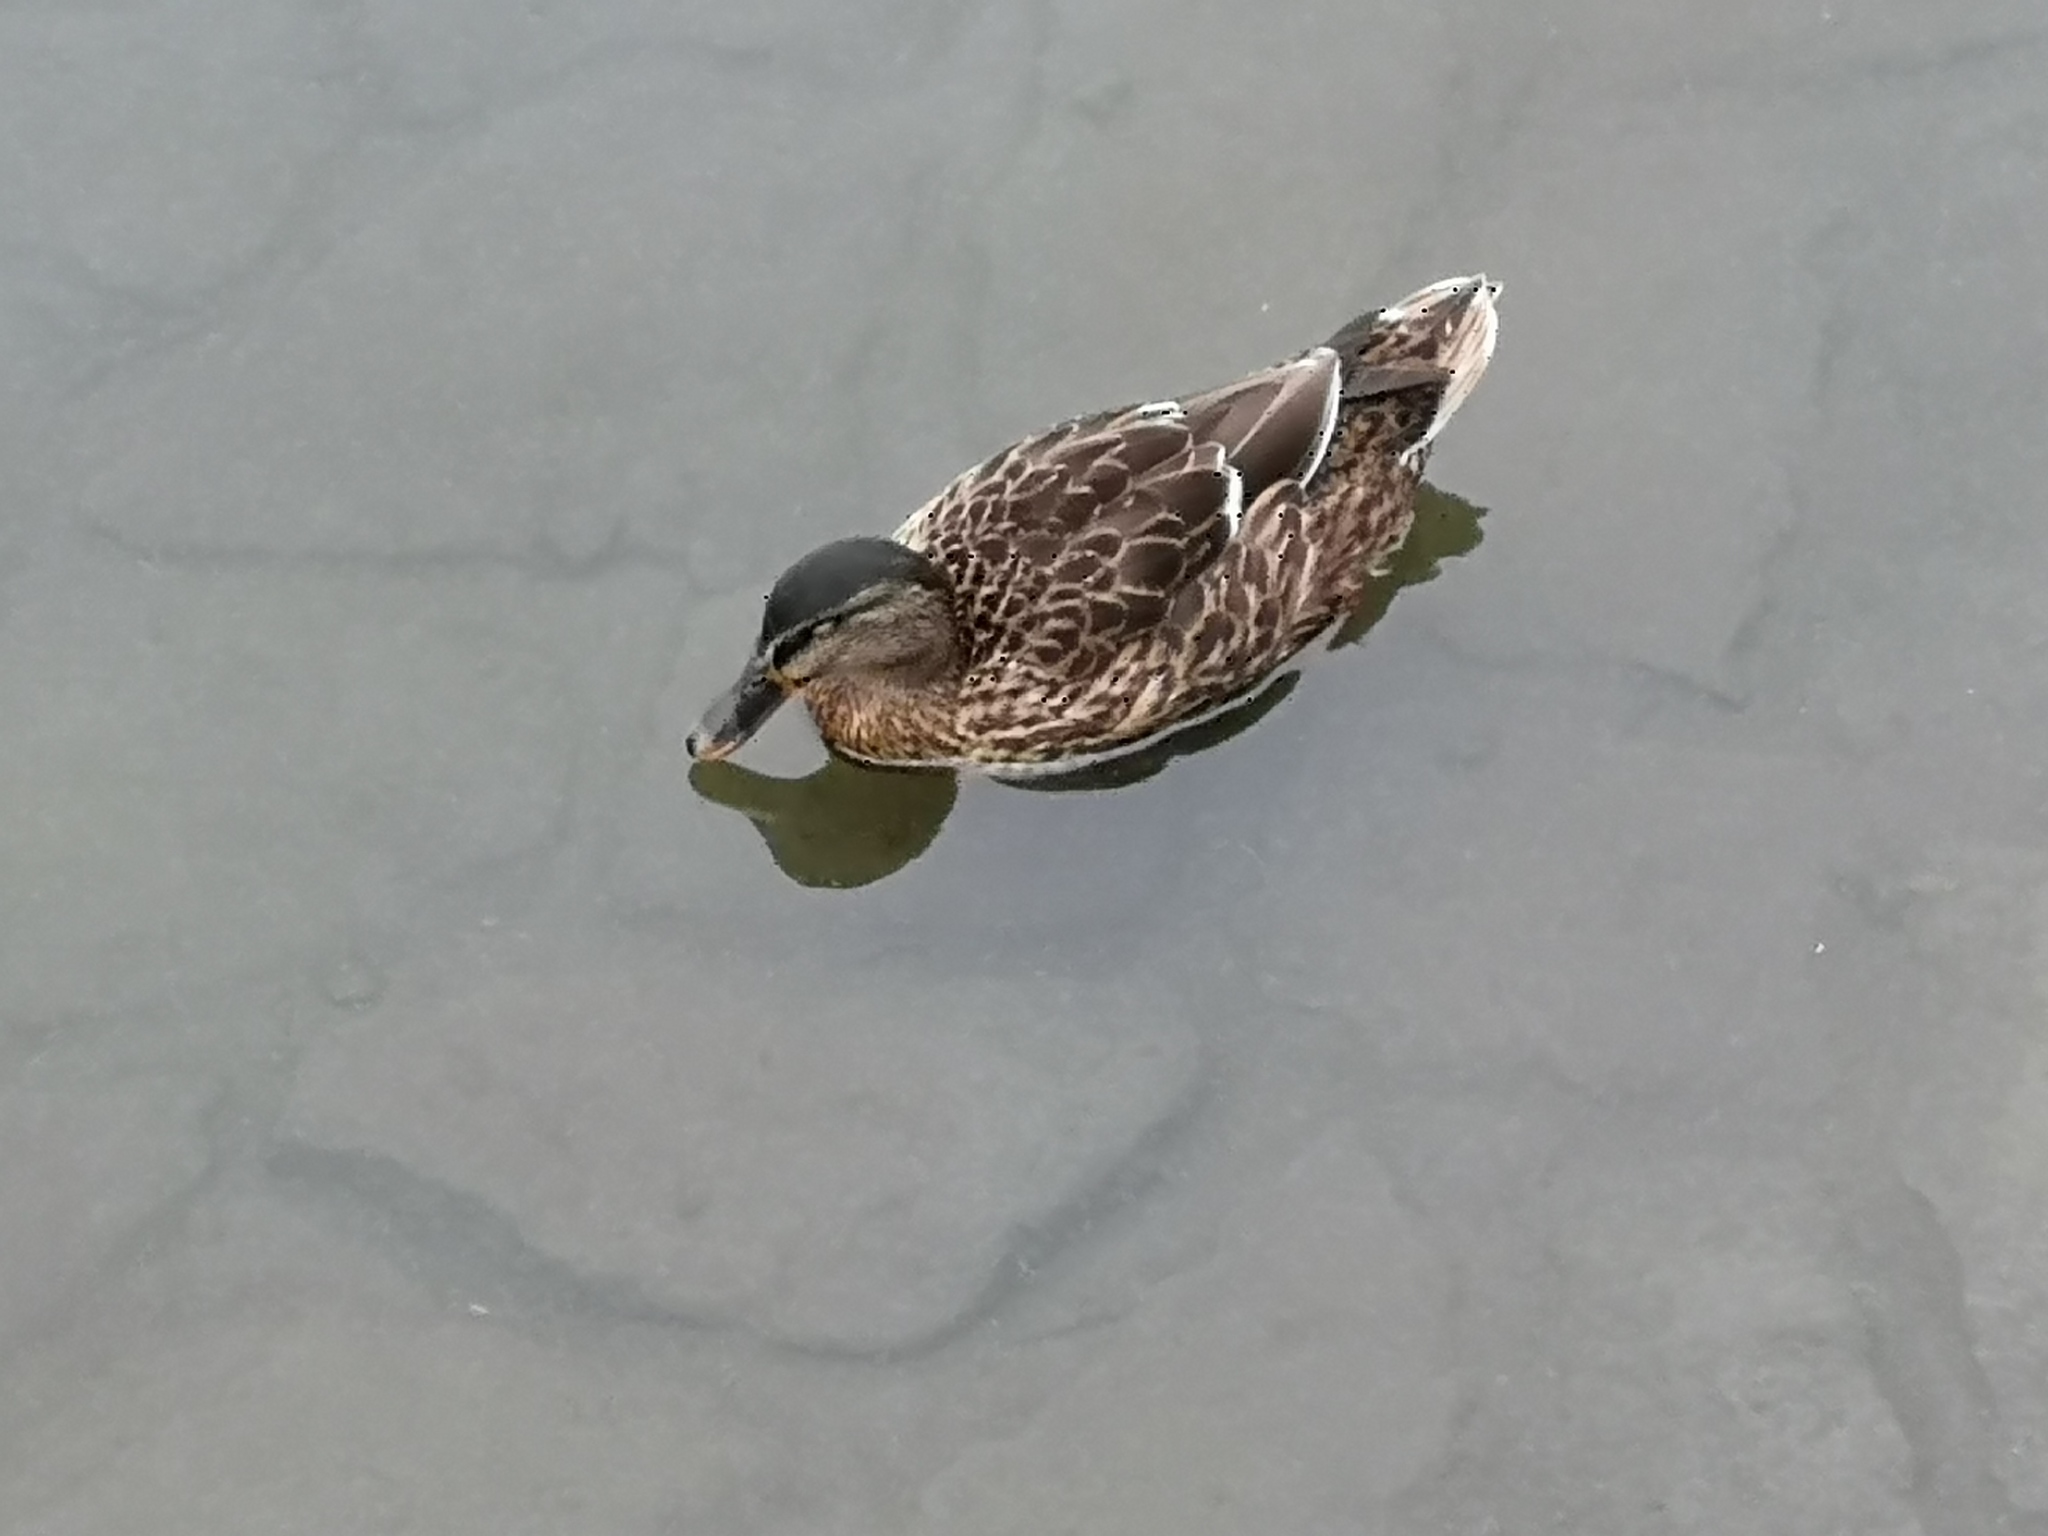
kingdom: Animalia
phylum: Chordata
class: Aves
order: Anseriformes
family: Anatidae
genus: Anas
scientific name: Anas platyrhynchos
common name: Mallard
